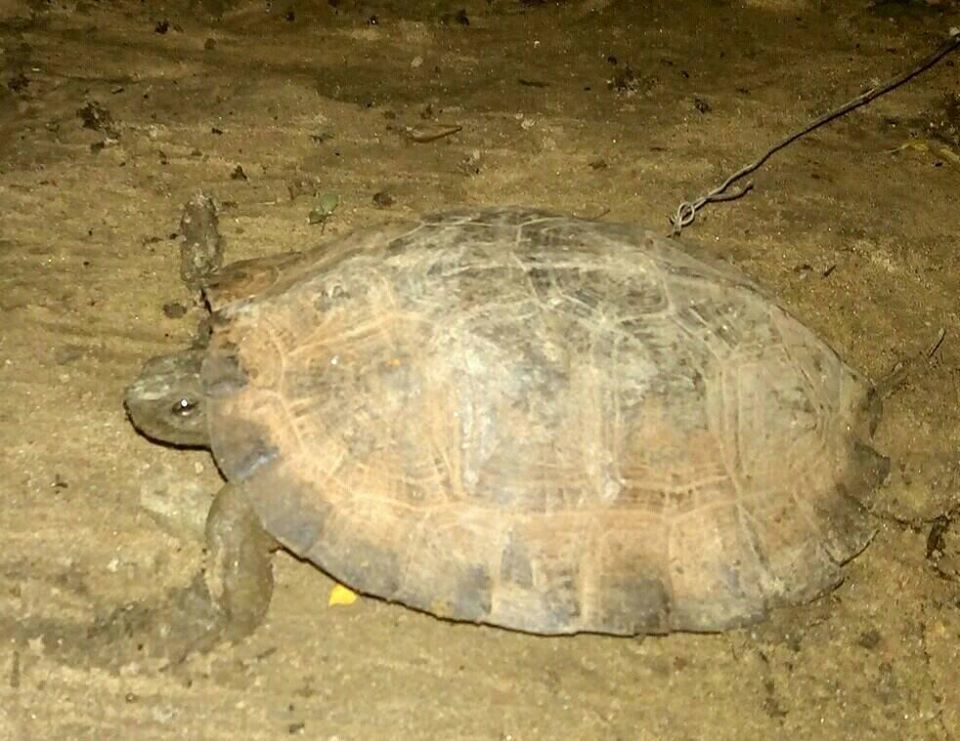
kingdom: Animalia
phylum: Chordata
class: Testudines
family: Geoemydidae
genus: Cyclemys
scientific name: Cyclemys gemeli
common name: Assam leaf turtle
